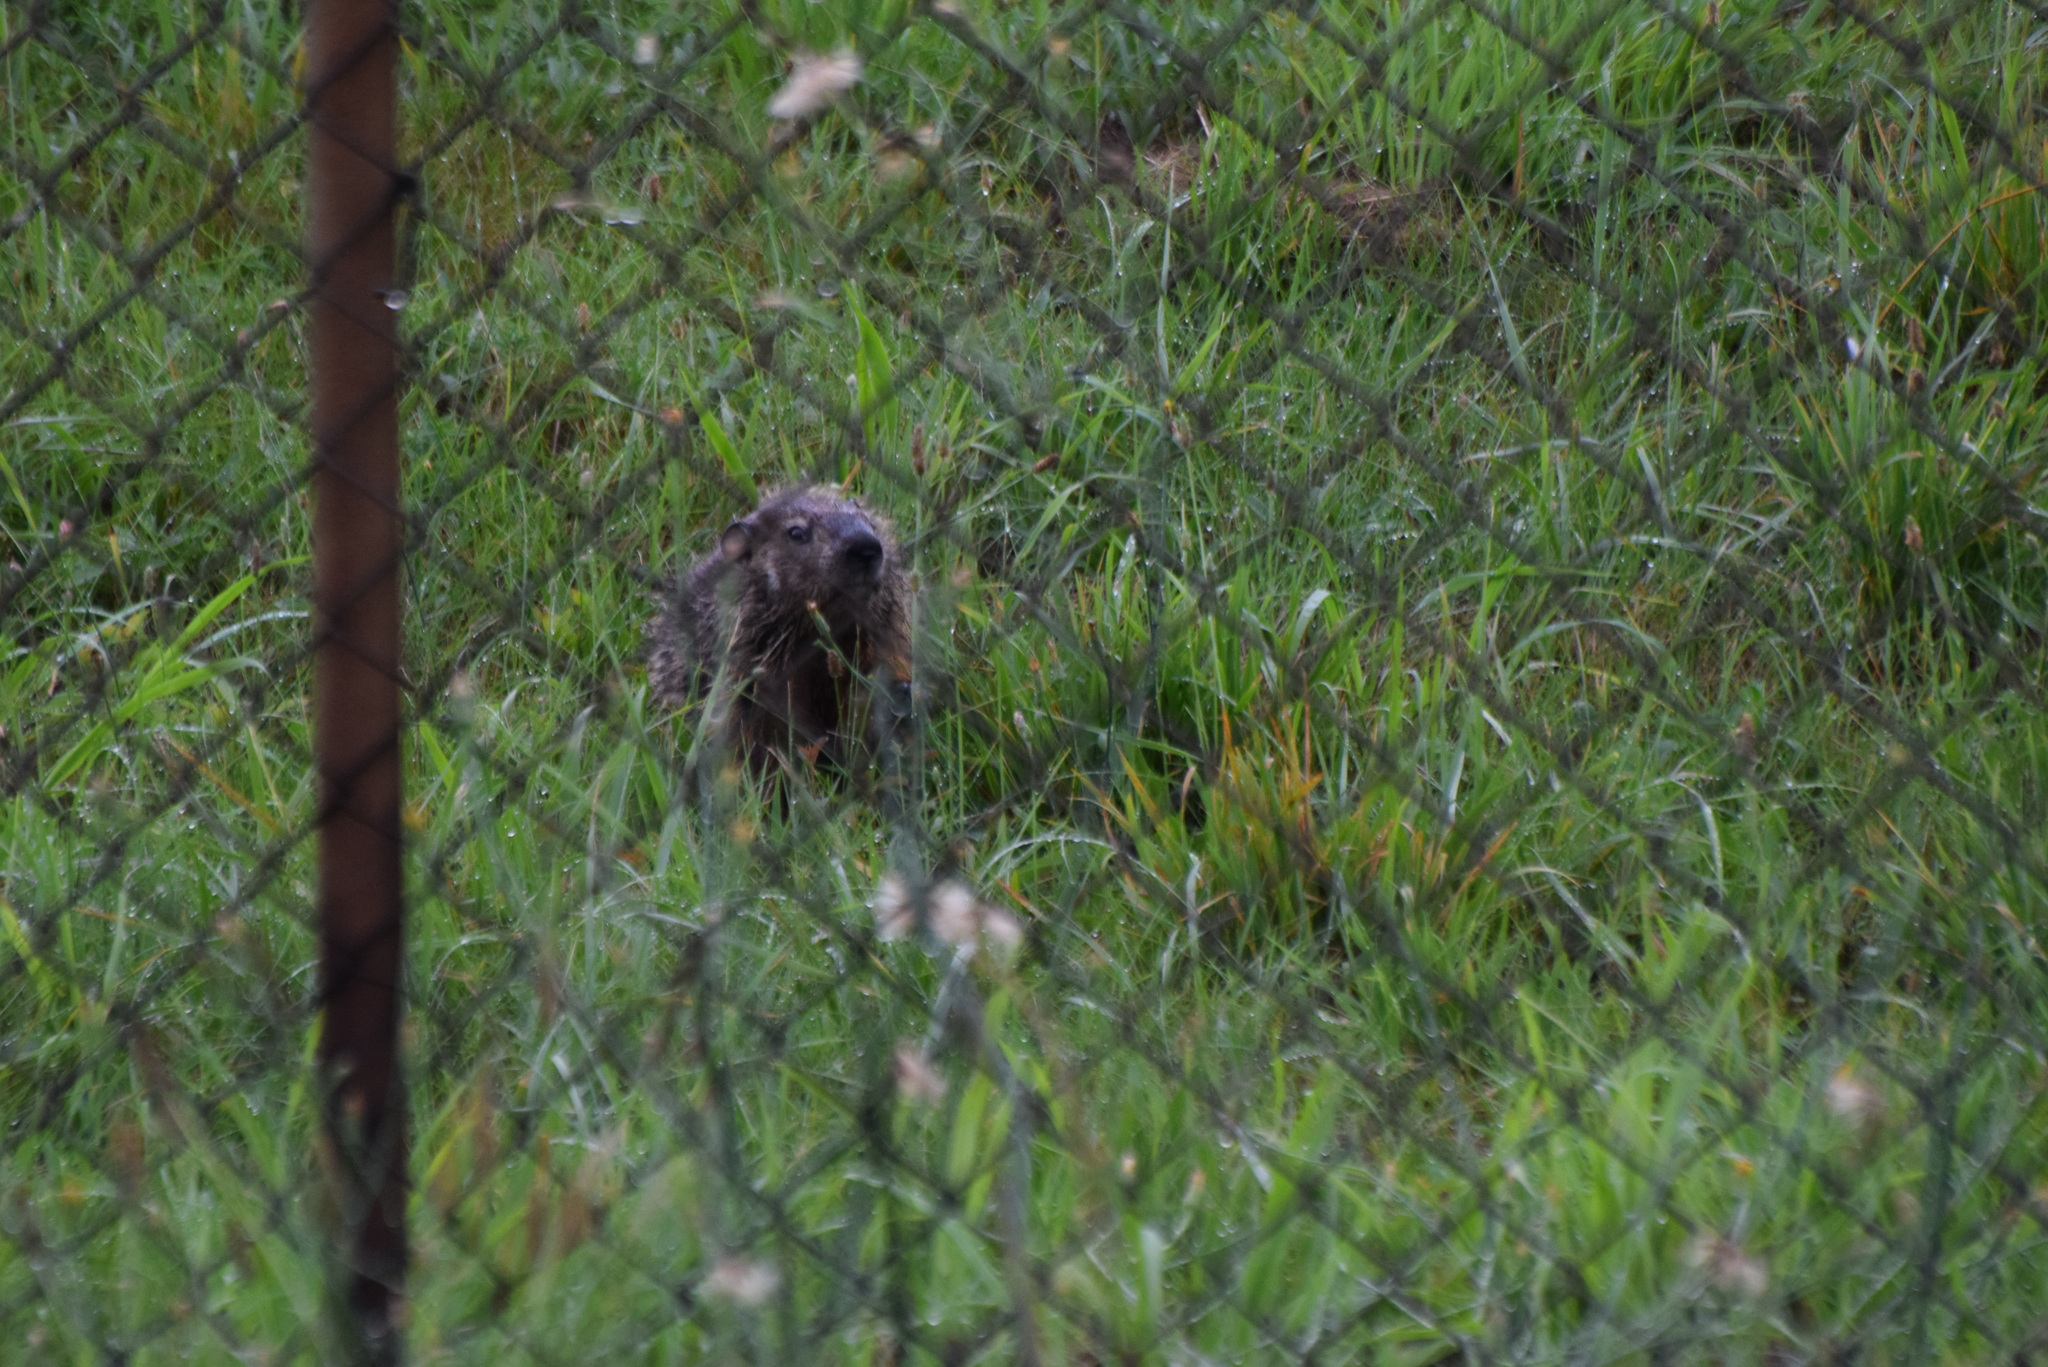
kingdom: Animalia
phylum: Chordata
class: Mammalia
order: Rodentia
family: Sciuridae
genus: Marmota
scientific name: Marmota monax
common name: Groundhog
